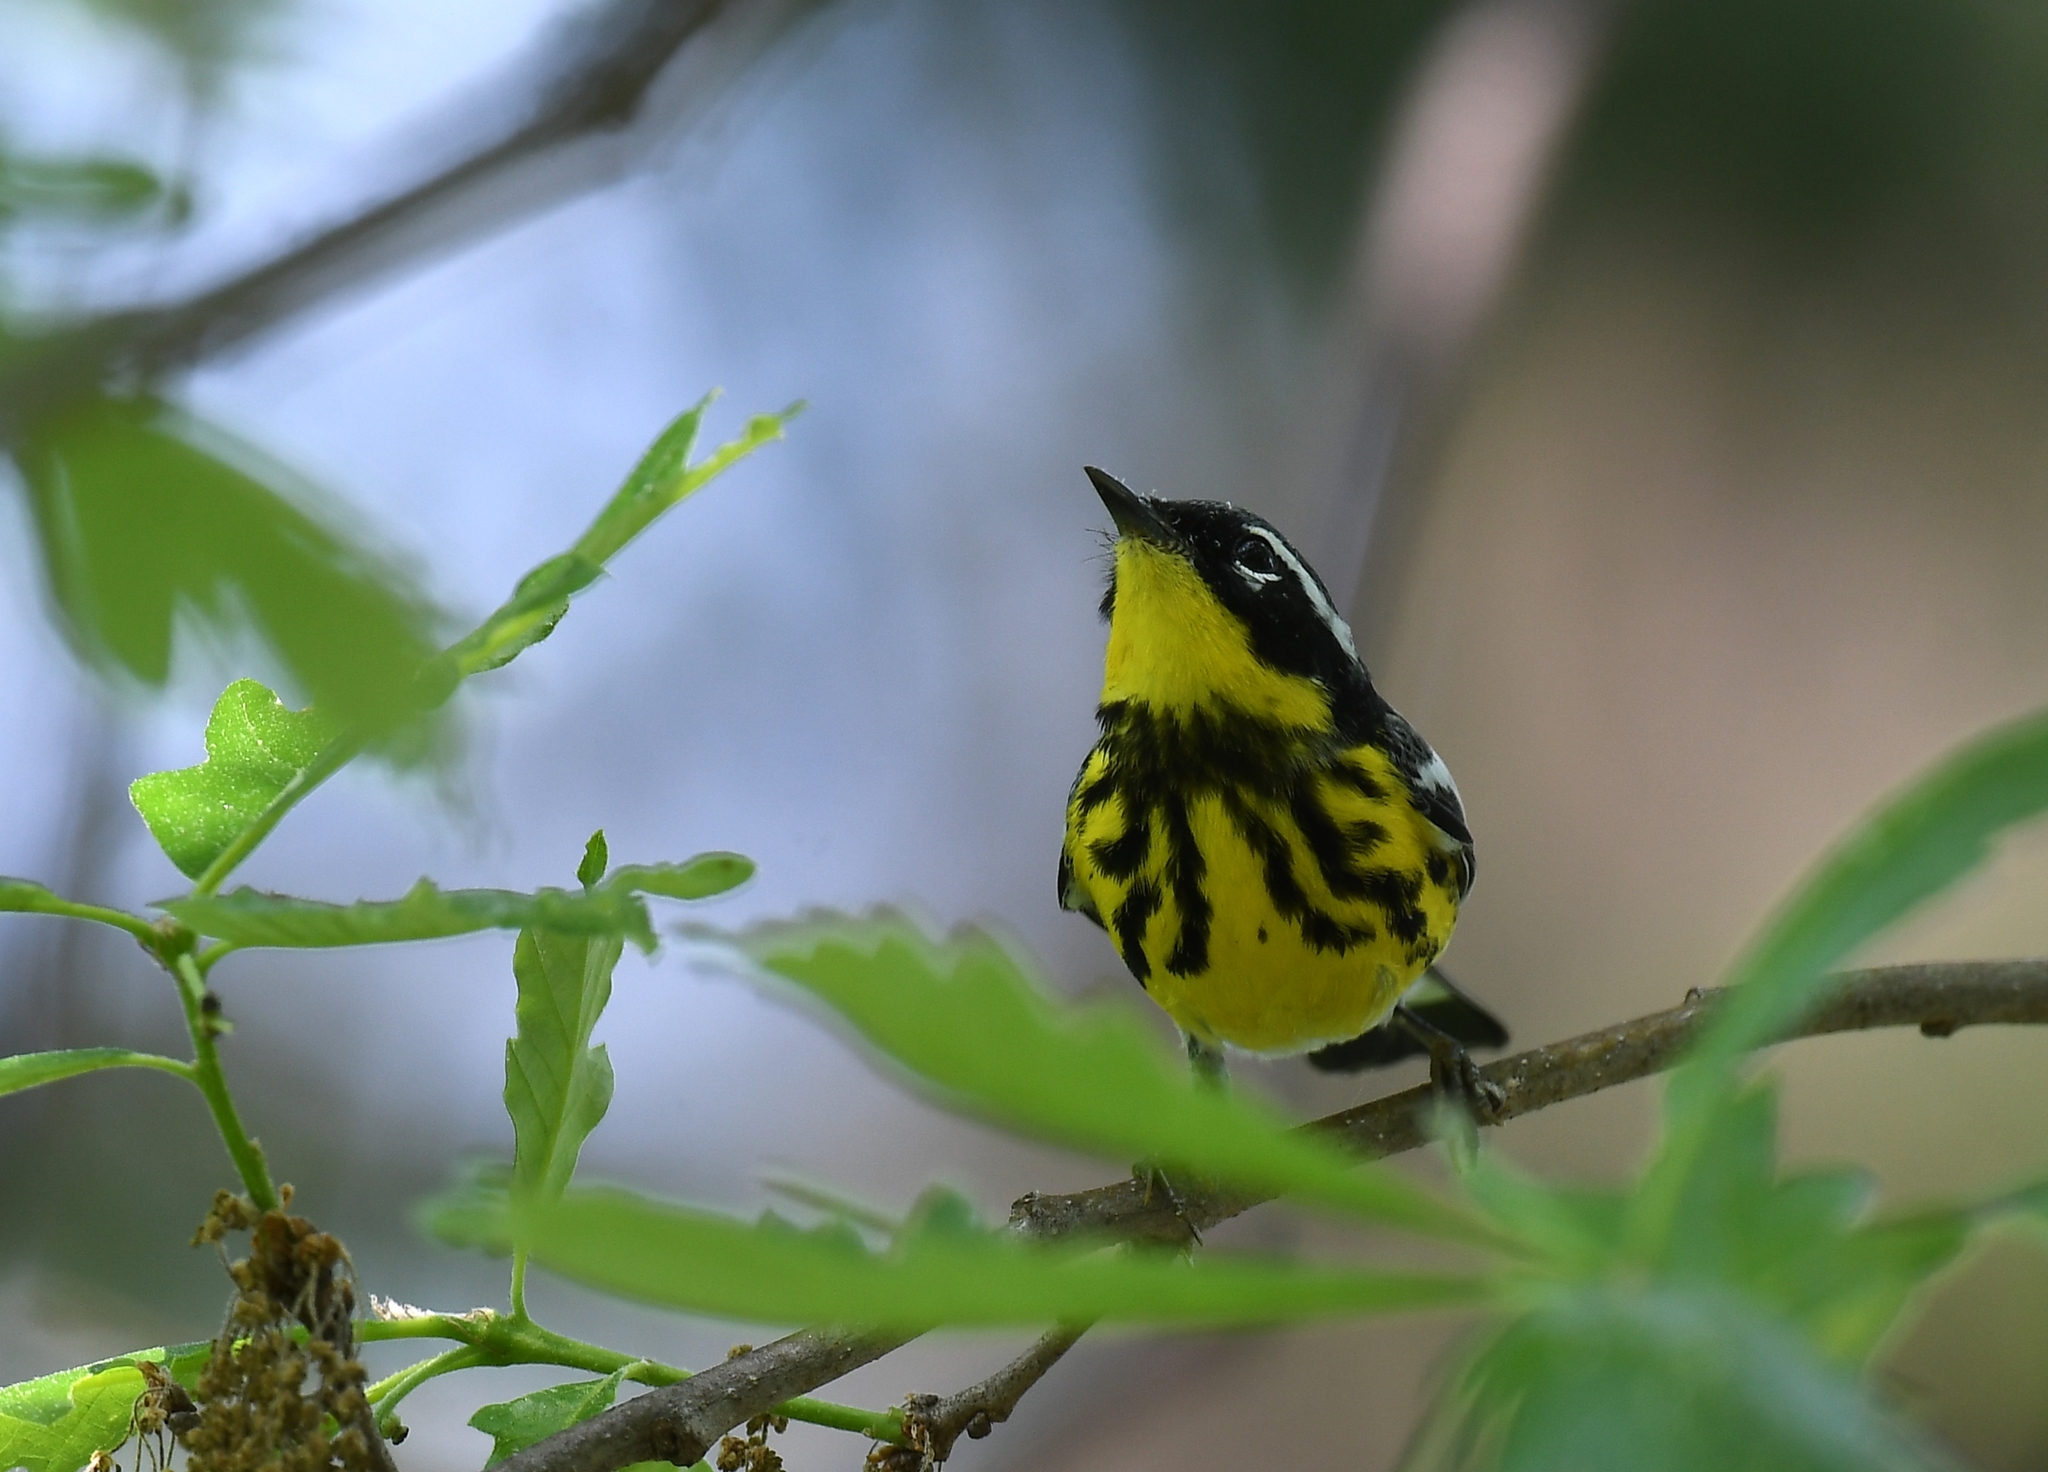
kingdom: Animalia
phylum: Chordata
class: Aves
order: Passeriformes
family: Parulidae
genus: Setophaga
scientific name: Setophaga magnolia
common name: Magnolia warbler
